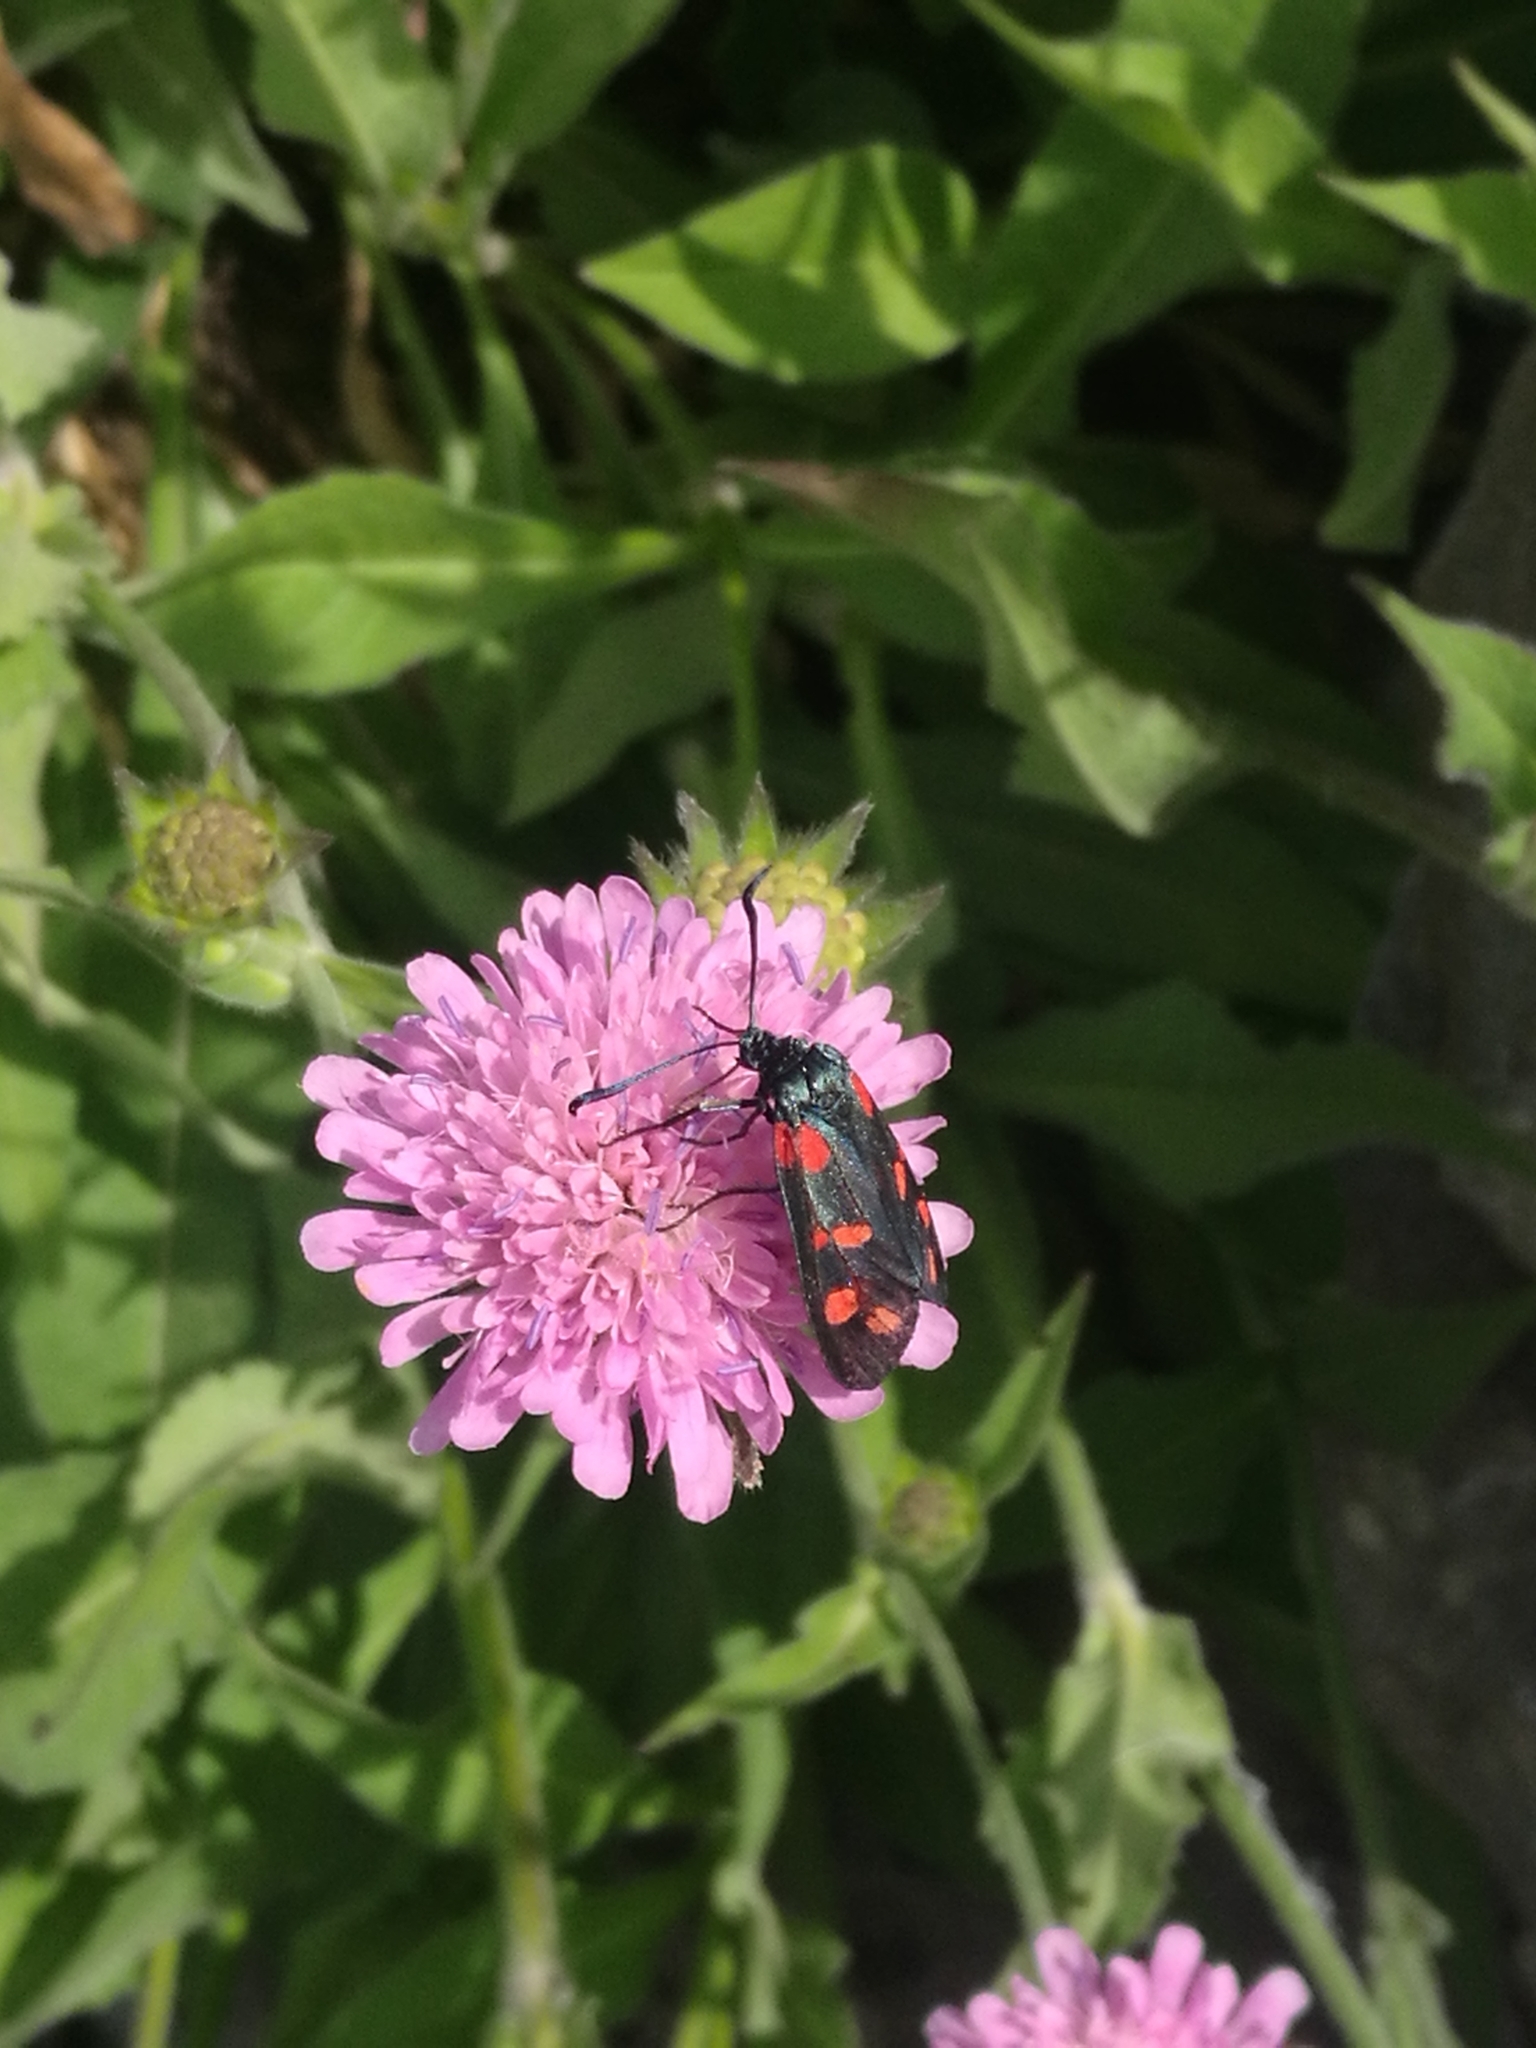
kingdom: Animalia
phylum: Arthropoda
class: Insecta
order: Lepidoptera
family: Zygaenidae
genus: Zygaena
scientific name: Zygaena filipendulae
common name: Six-spot burnet
